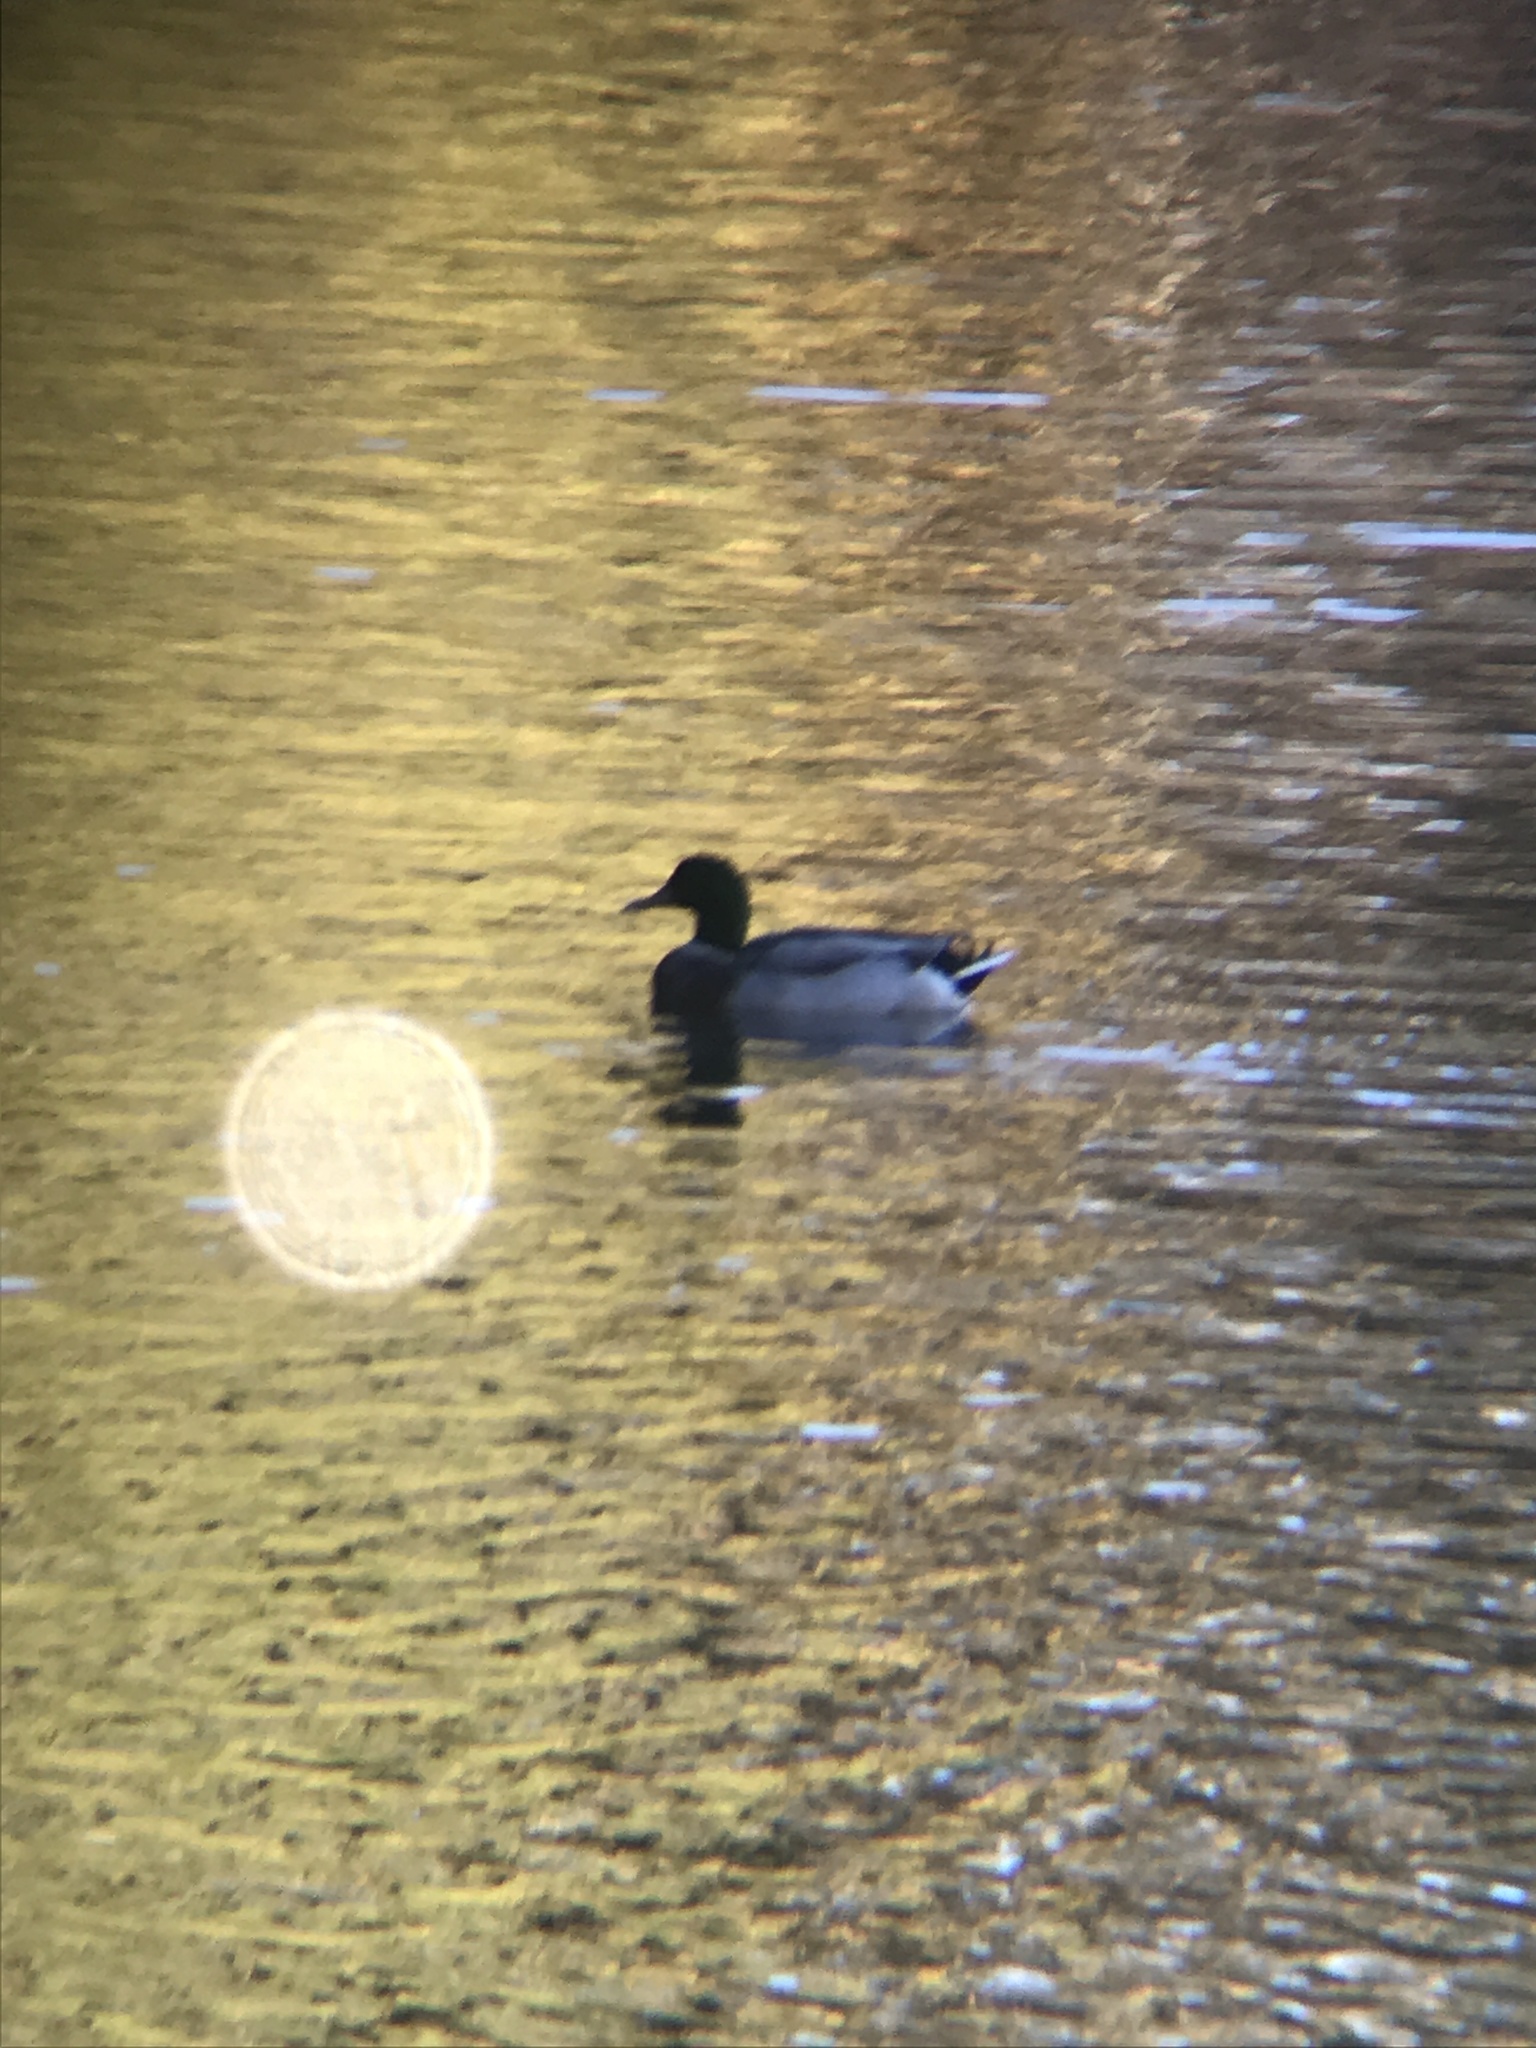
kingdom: Animalia
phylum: Chordata
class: Aves
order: Anseriformes
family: Anatidae
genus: Anas
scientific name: Anas platyrhynchos
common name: Mallard
